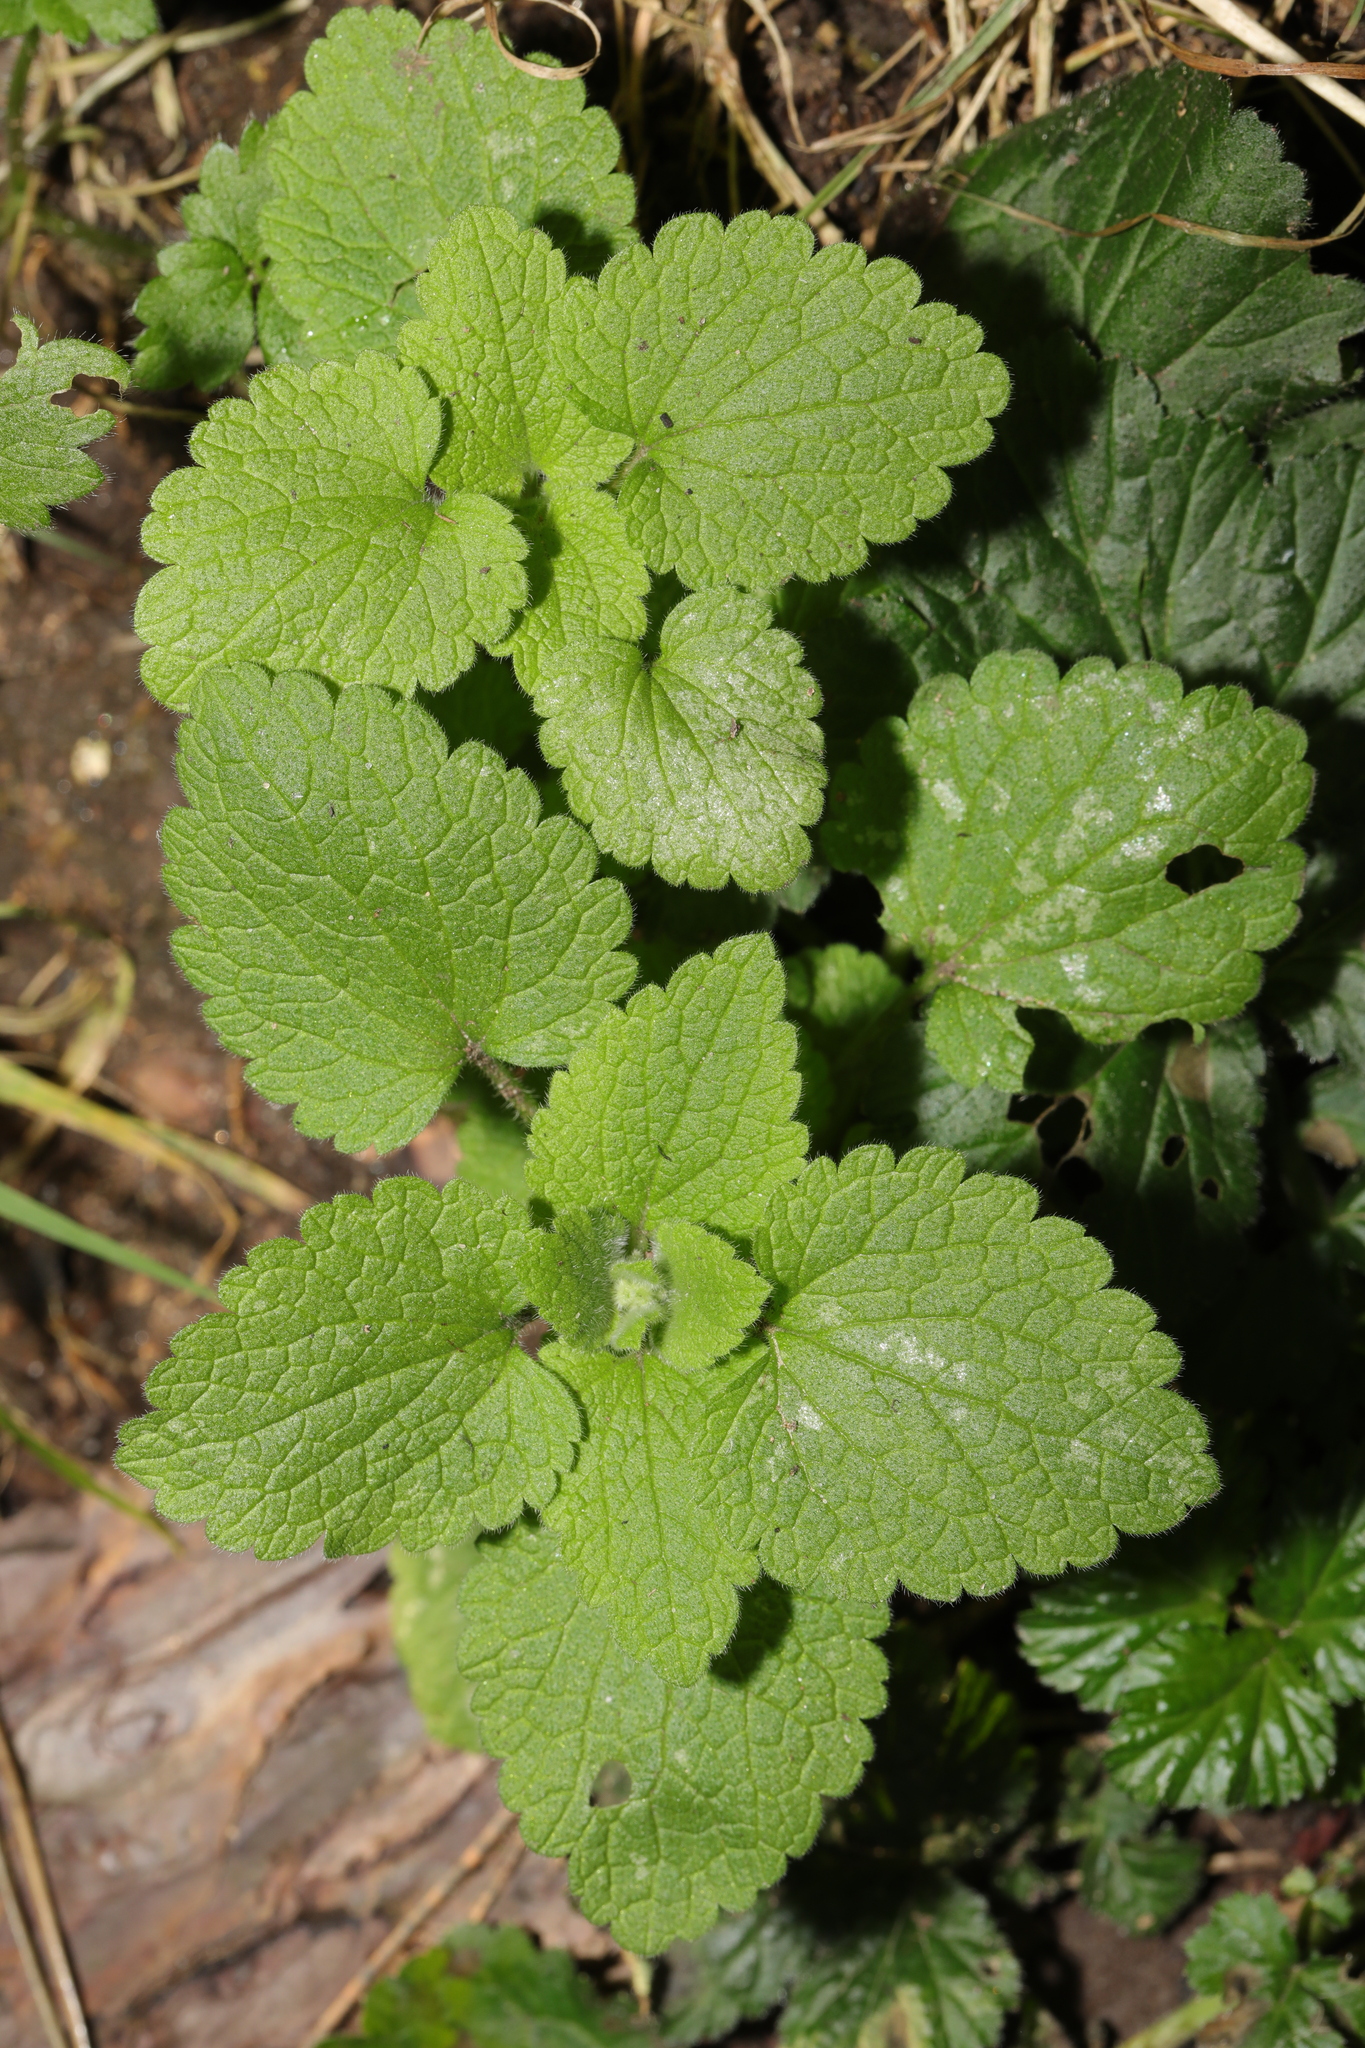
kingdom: Plantae
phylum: Tracheophyta
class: Magnoliopsida
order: Lamiales
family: Lamiaceae
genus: Lamium
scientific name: Lamium album
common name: White dead-nettle
